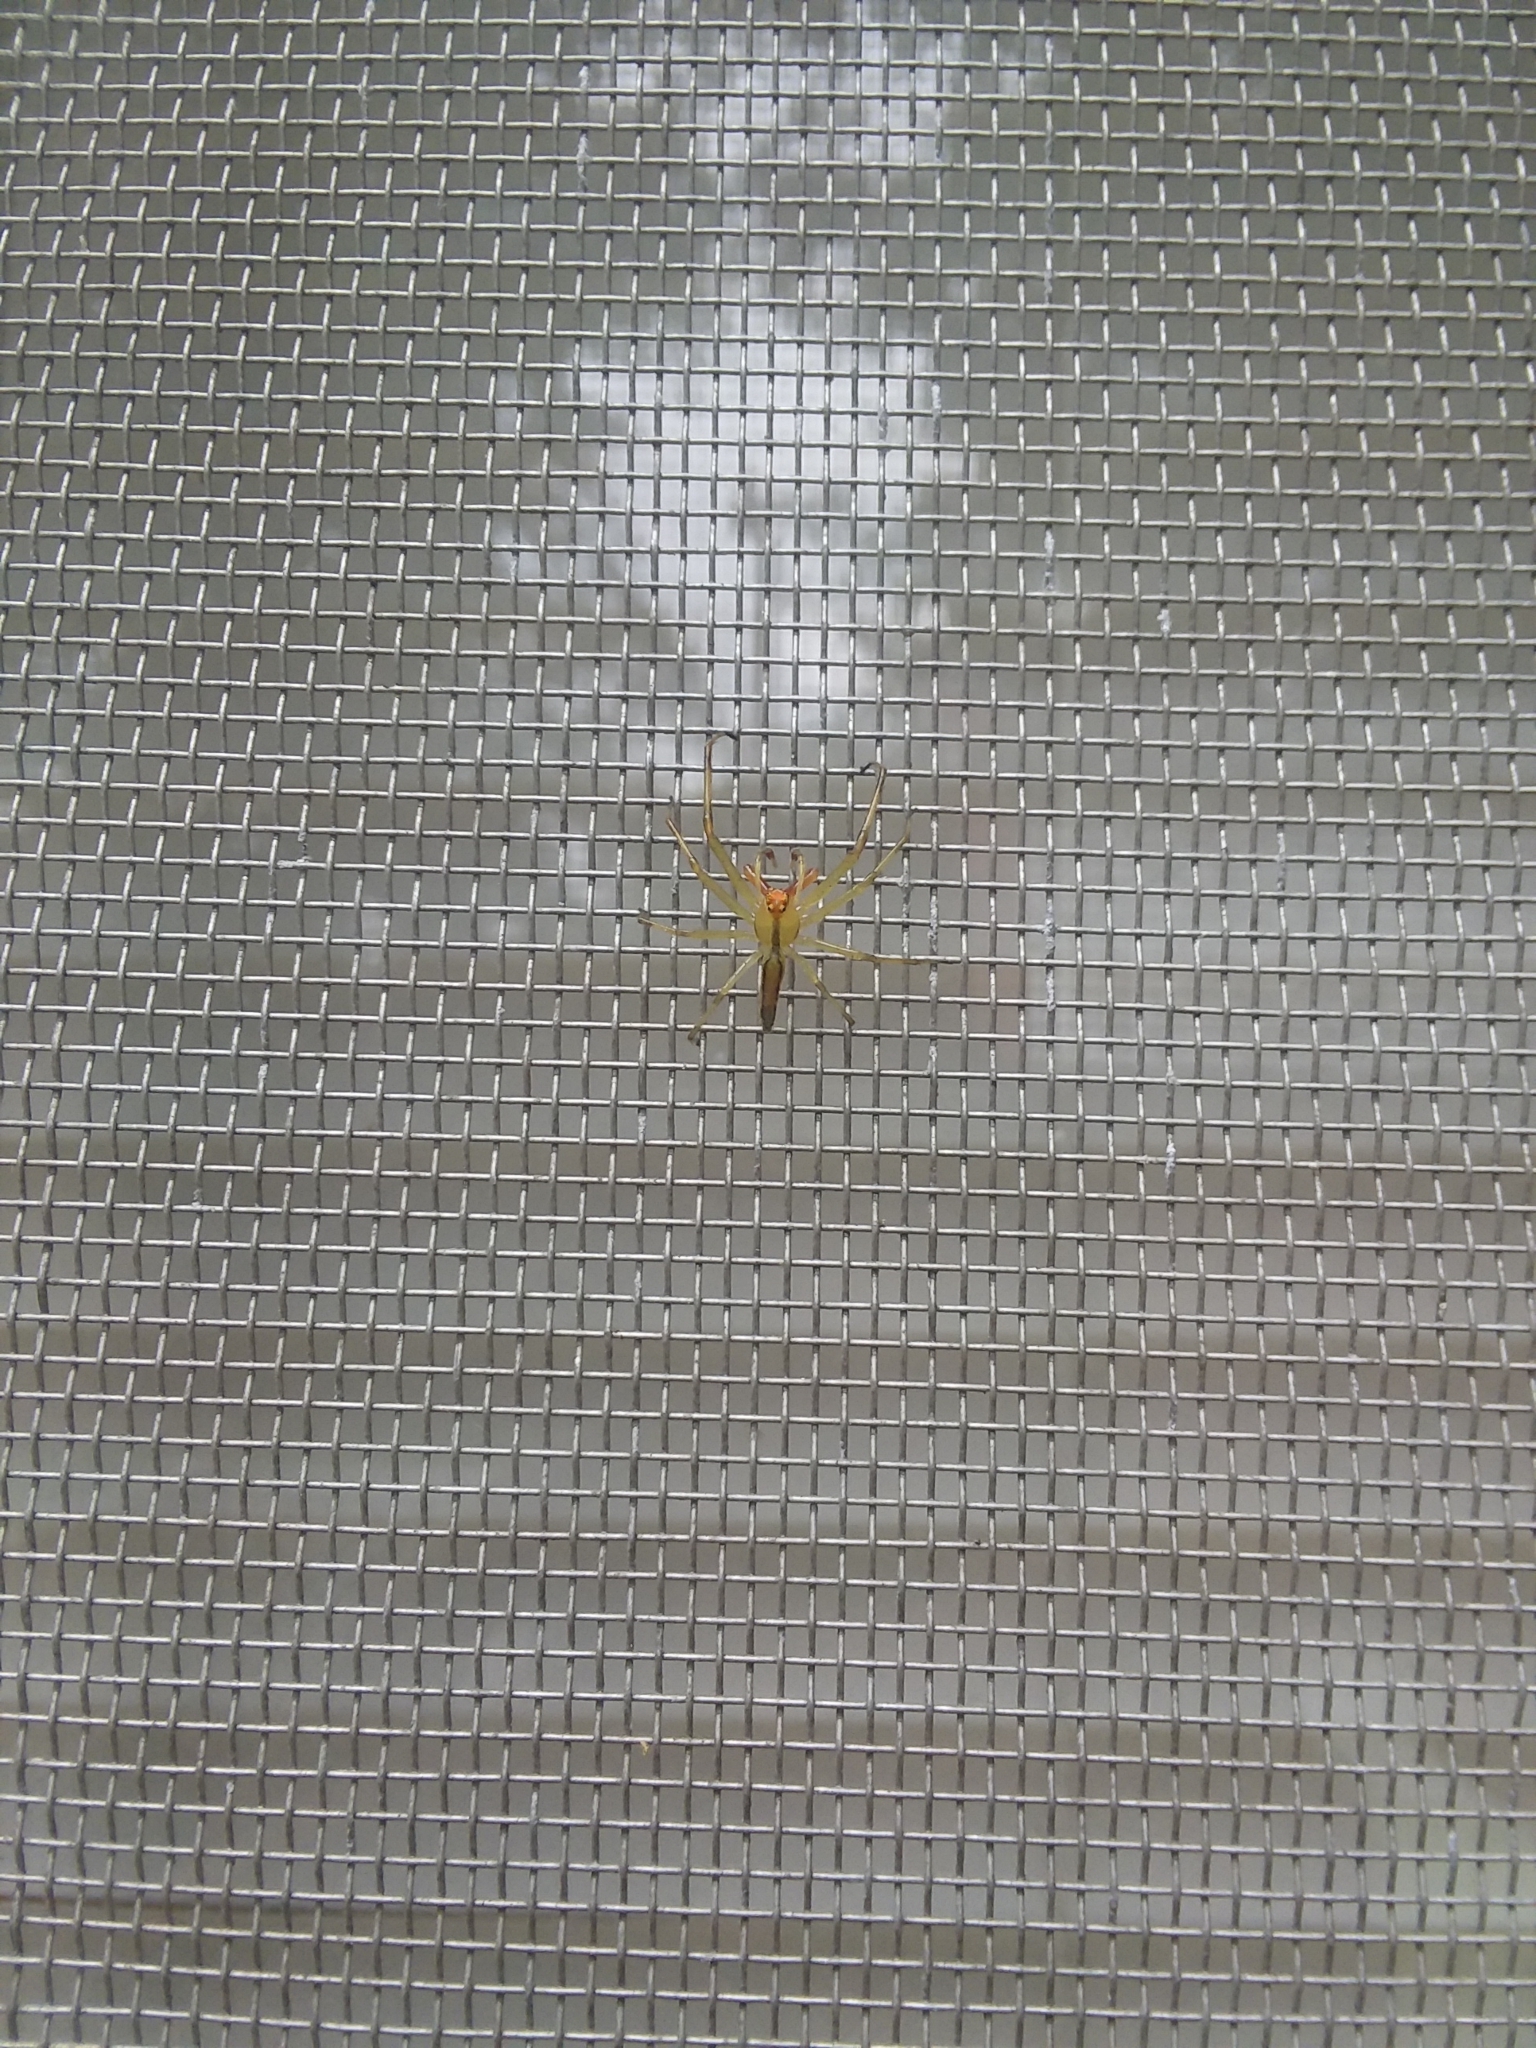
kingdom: Animalia
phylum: Arthropoda
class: Arachnida
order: Araneae
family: Salticidae
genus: Lyssomanes
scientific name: Lyssomanes viridis
